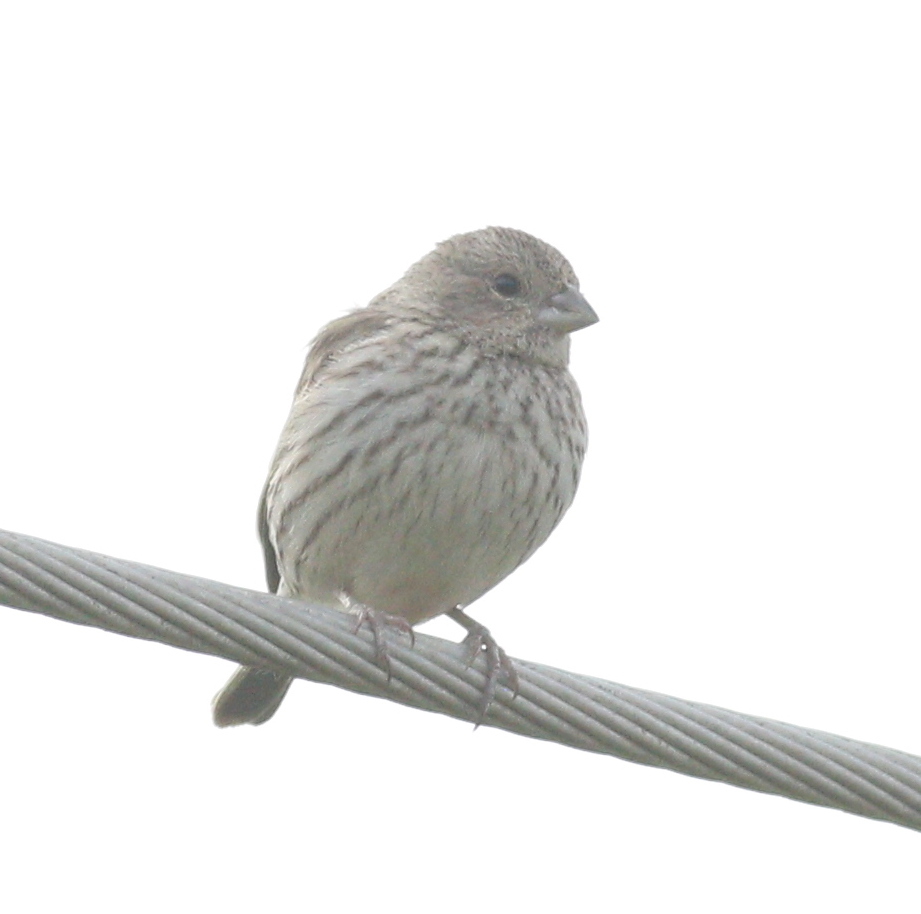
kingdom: Animalia
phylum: Chordata
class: Aves
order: Passeriformes
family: Thraupidae
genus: Sicalis
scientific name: Sicalis flaveola
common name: Saffron finch
